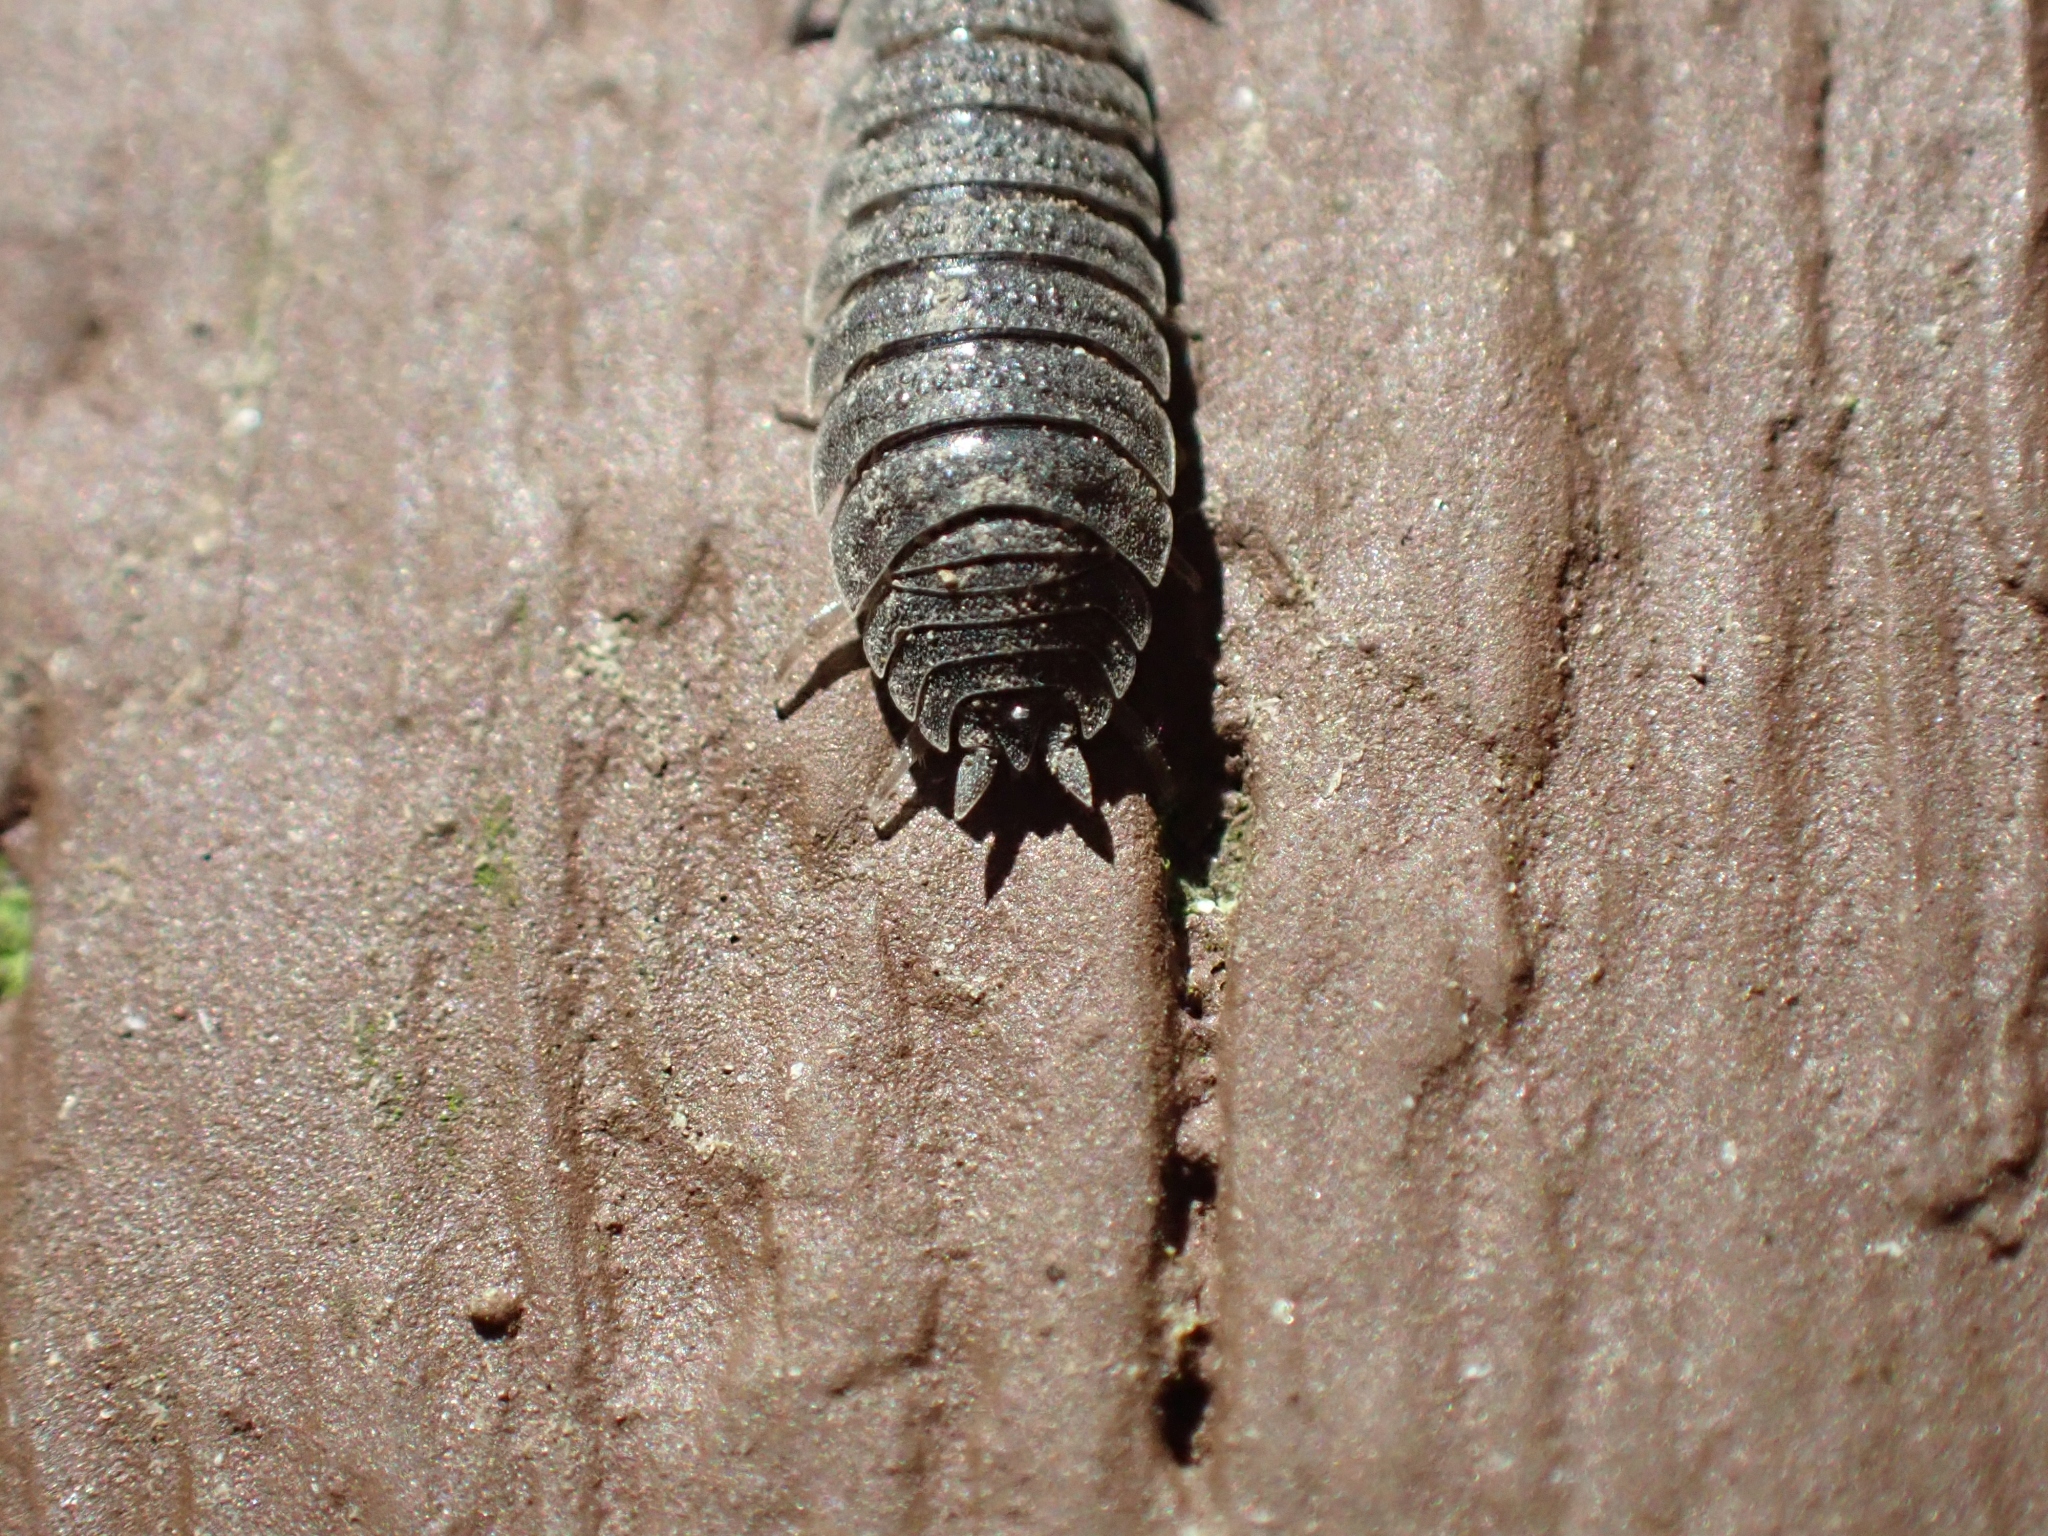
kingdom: Animalia
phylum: Arthropoda
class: Malacostraca
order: Isopoda
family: Porcellionidae
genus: Porcellio
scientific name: Porcellio scaber
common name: Common rough woodlouse
